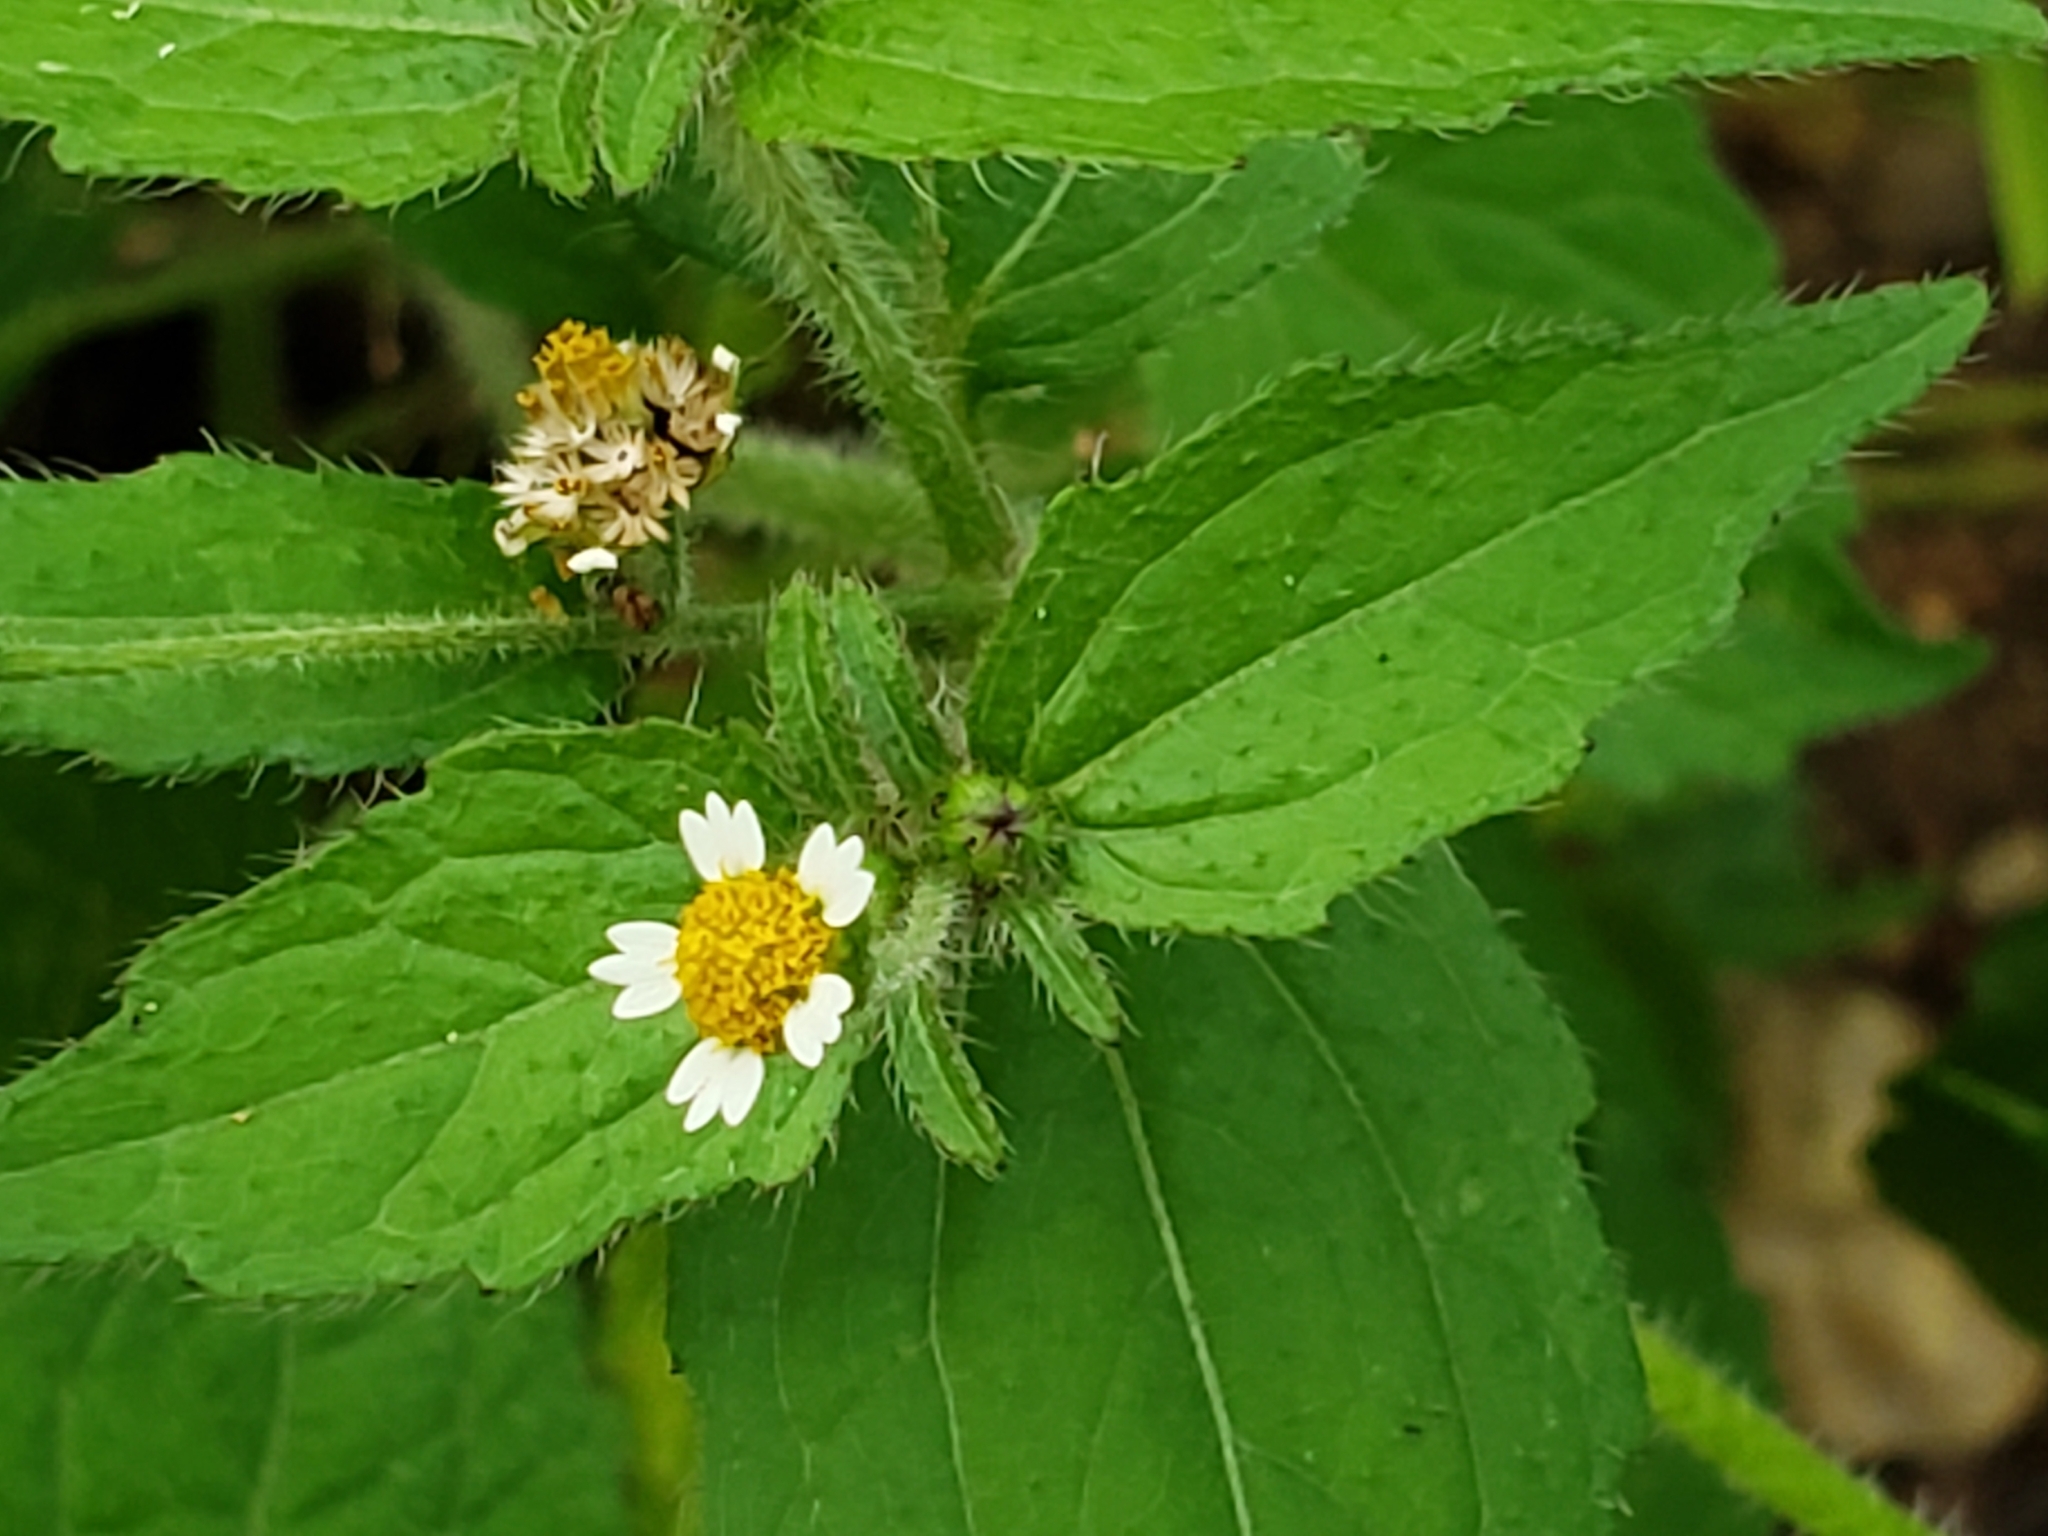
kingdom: Plantae
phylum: Tracheophyta
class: Magnoliopsida
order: Asterales
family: Asteraceae
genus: Galinsoga
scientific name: Galinsoga quadriradiata
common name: Shaggy soldier
